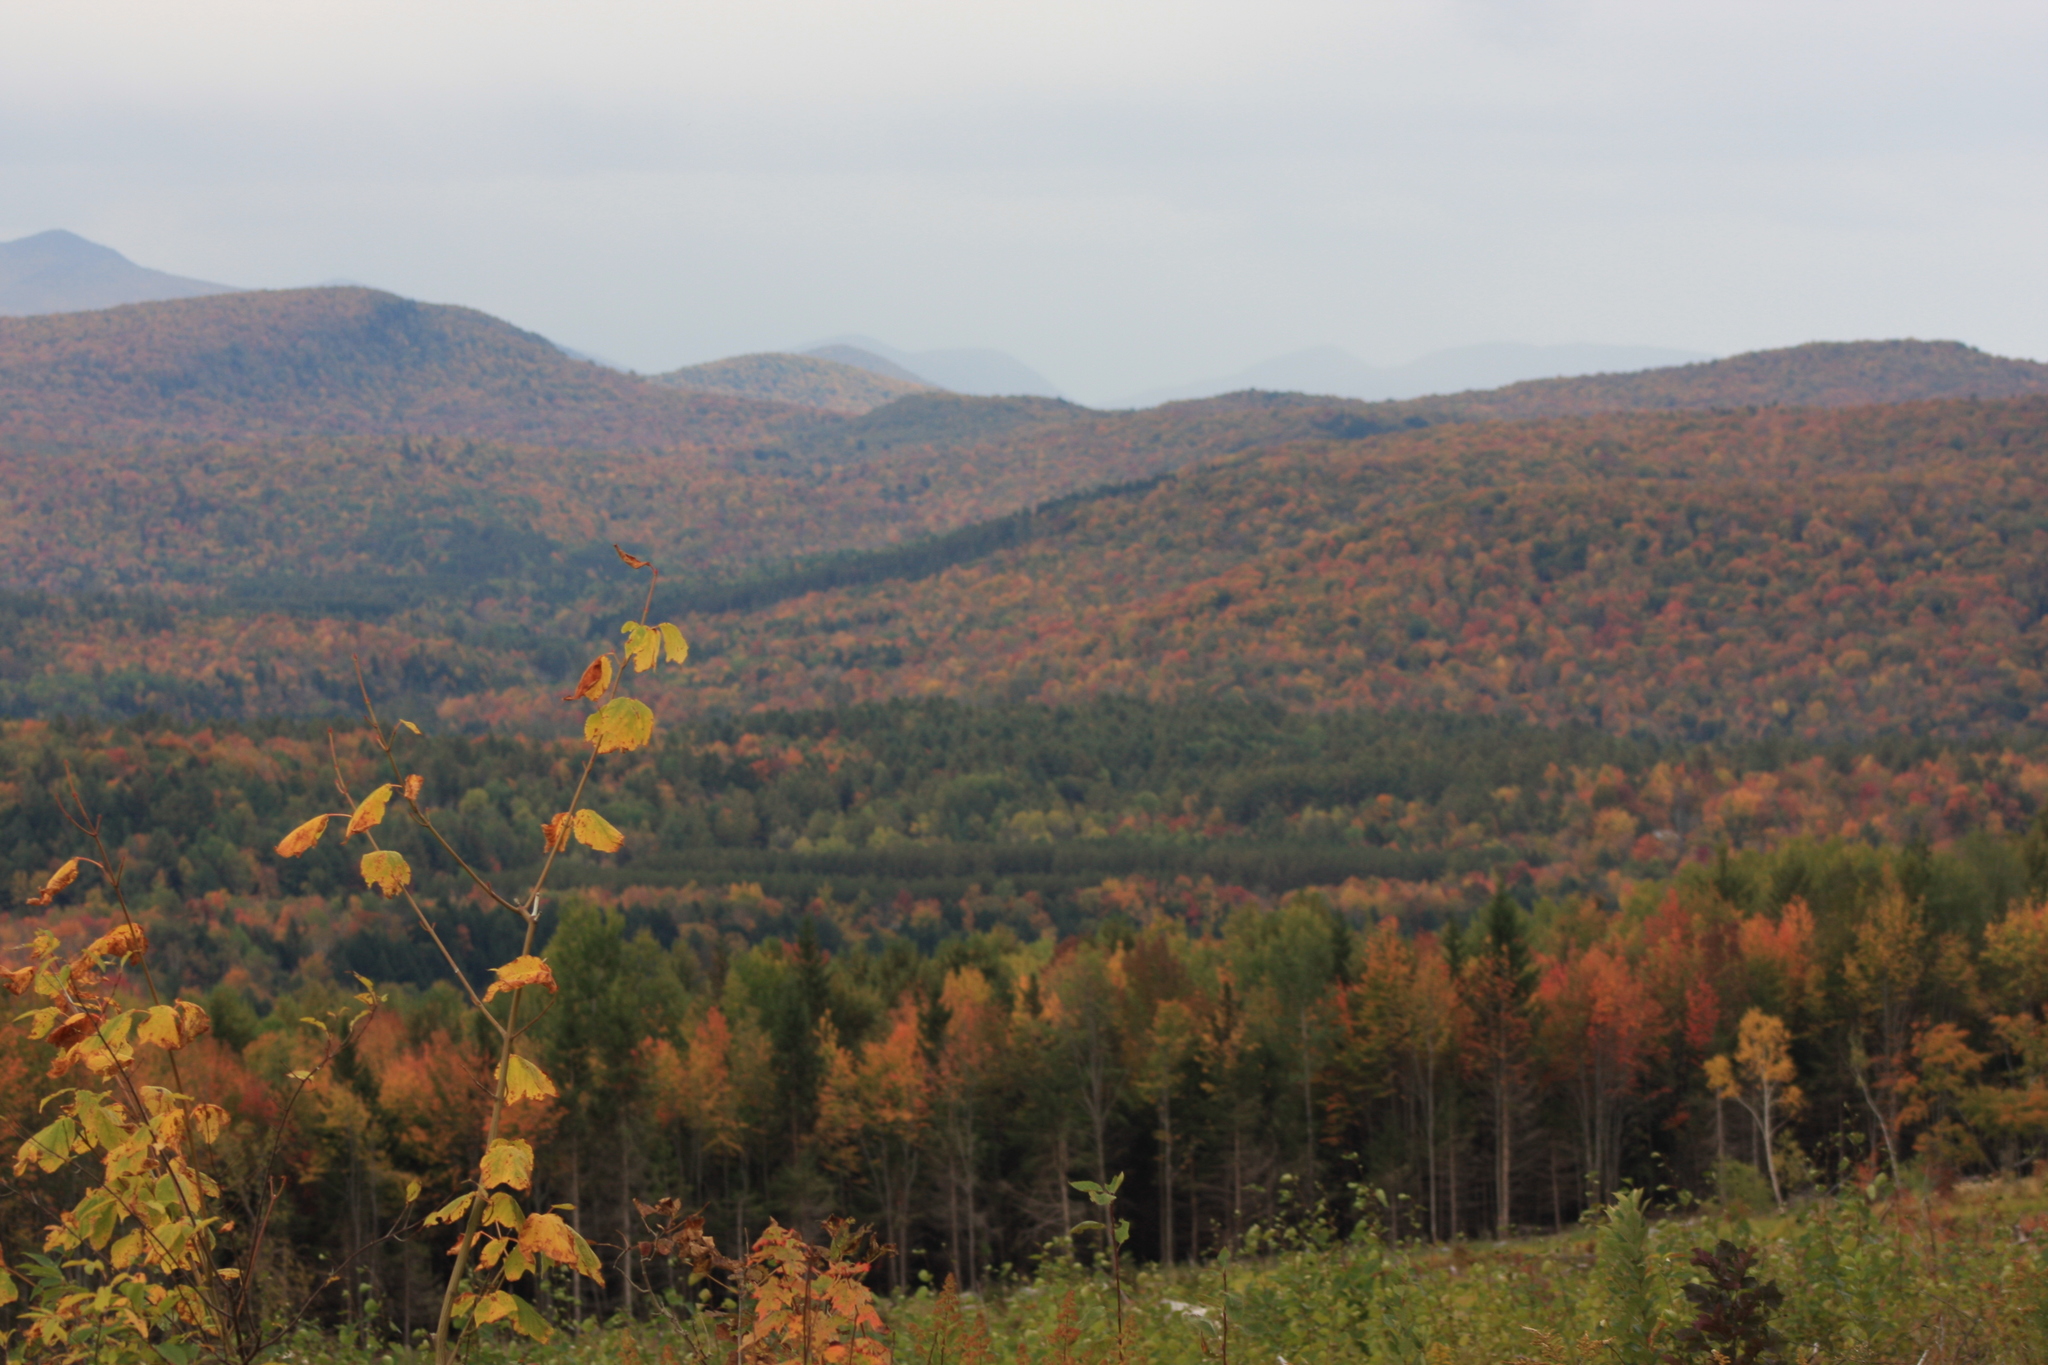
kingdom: Plantae
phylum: Tracheophyta
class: Magnoliopsida
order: Sapindales
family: Sapindaceae
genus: Acer
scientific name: Acer pensylvanicum
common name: Moosewood
